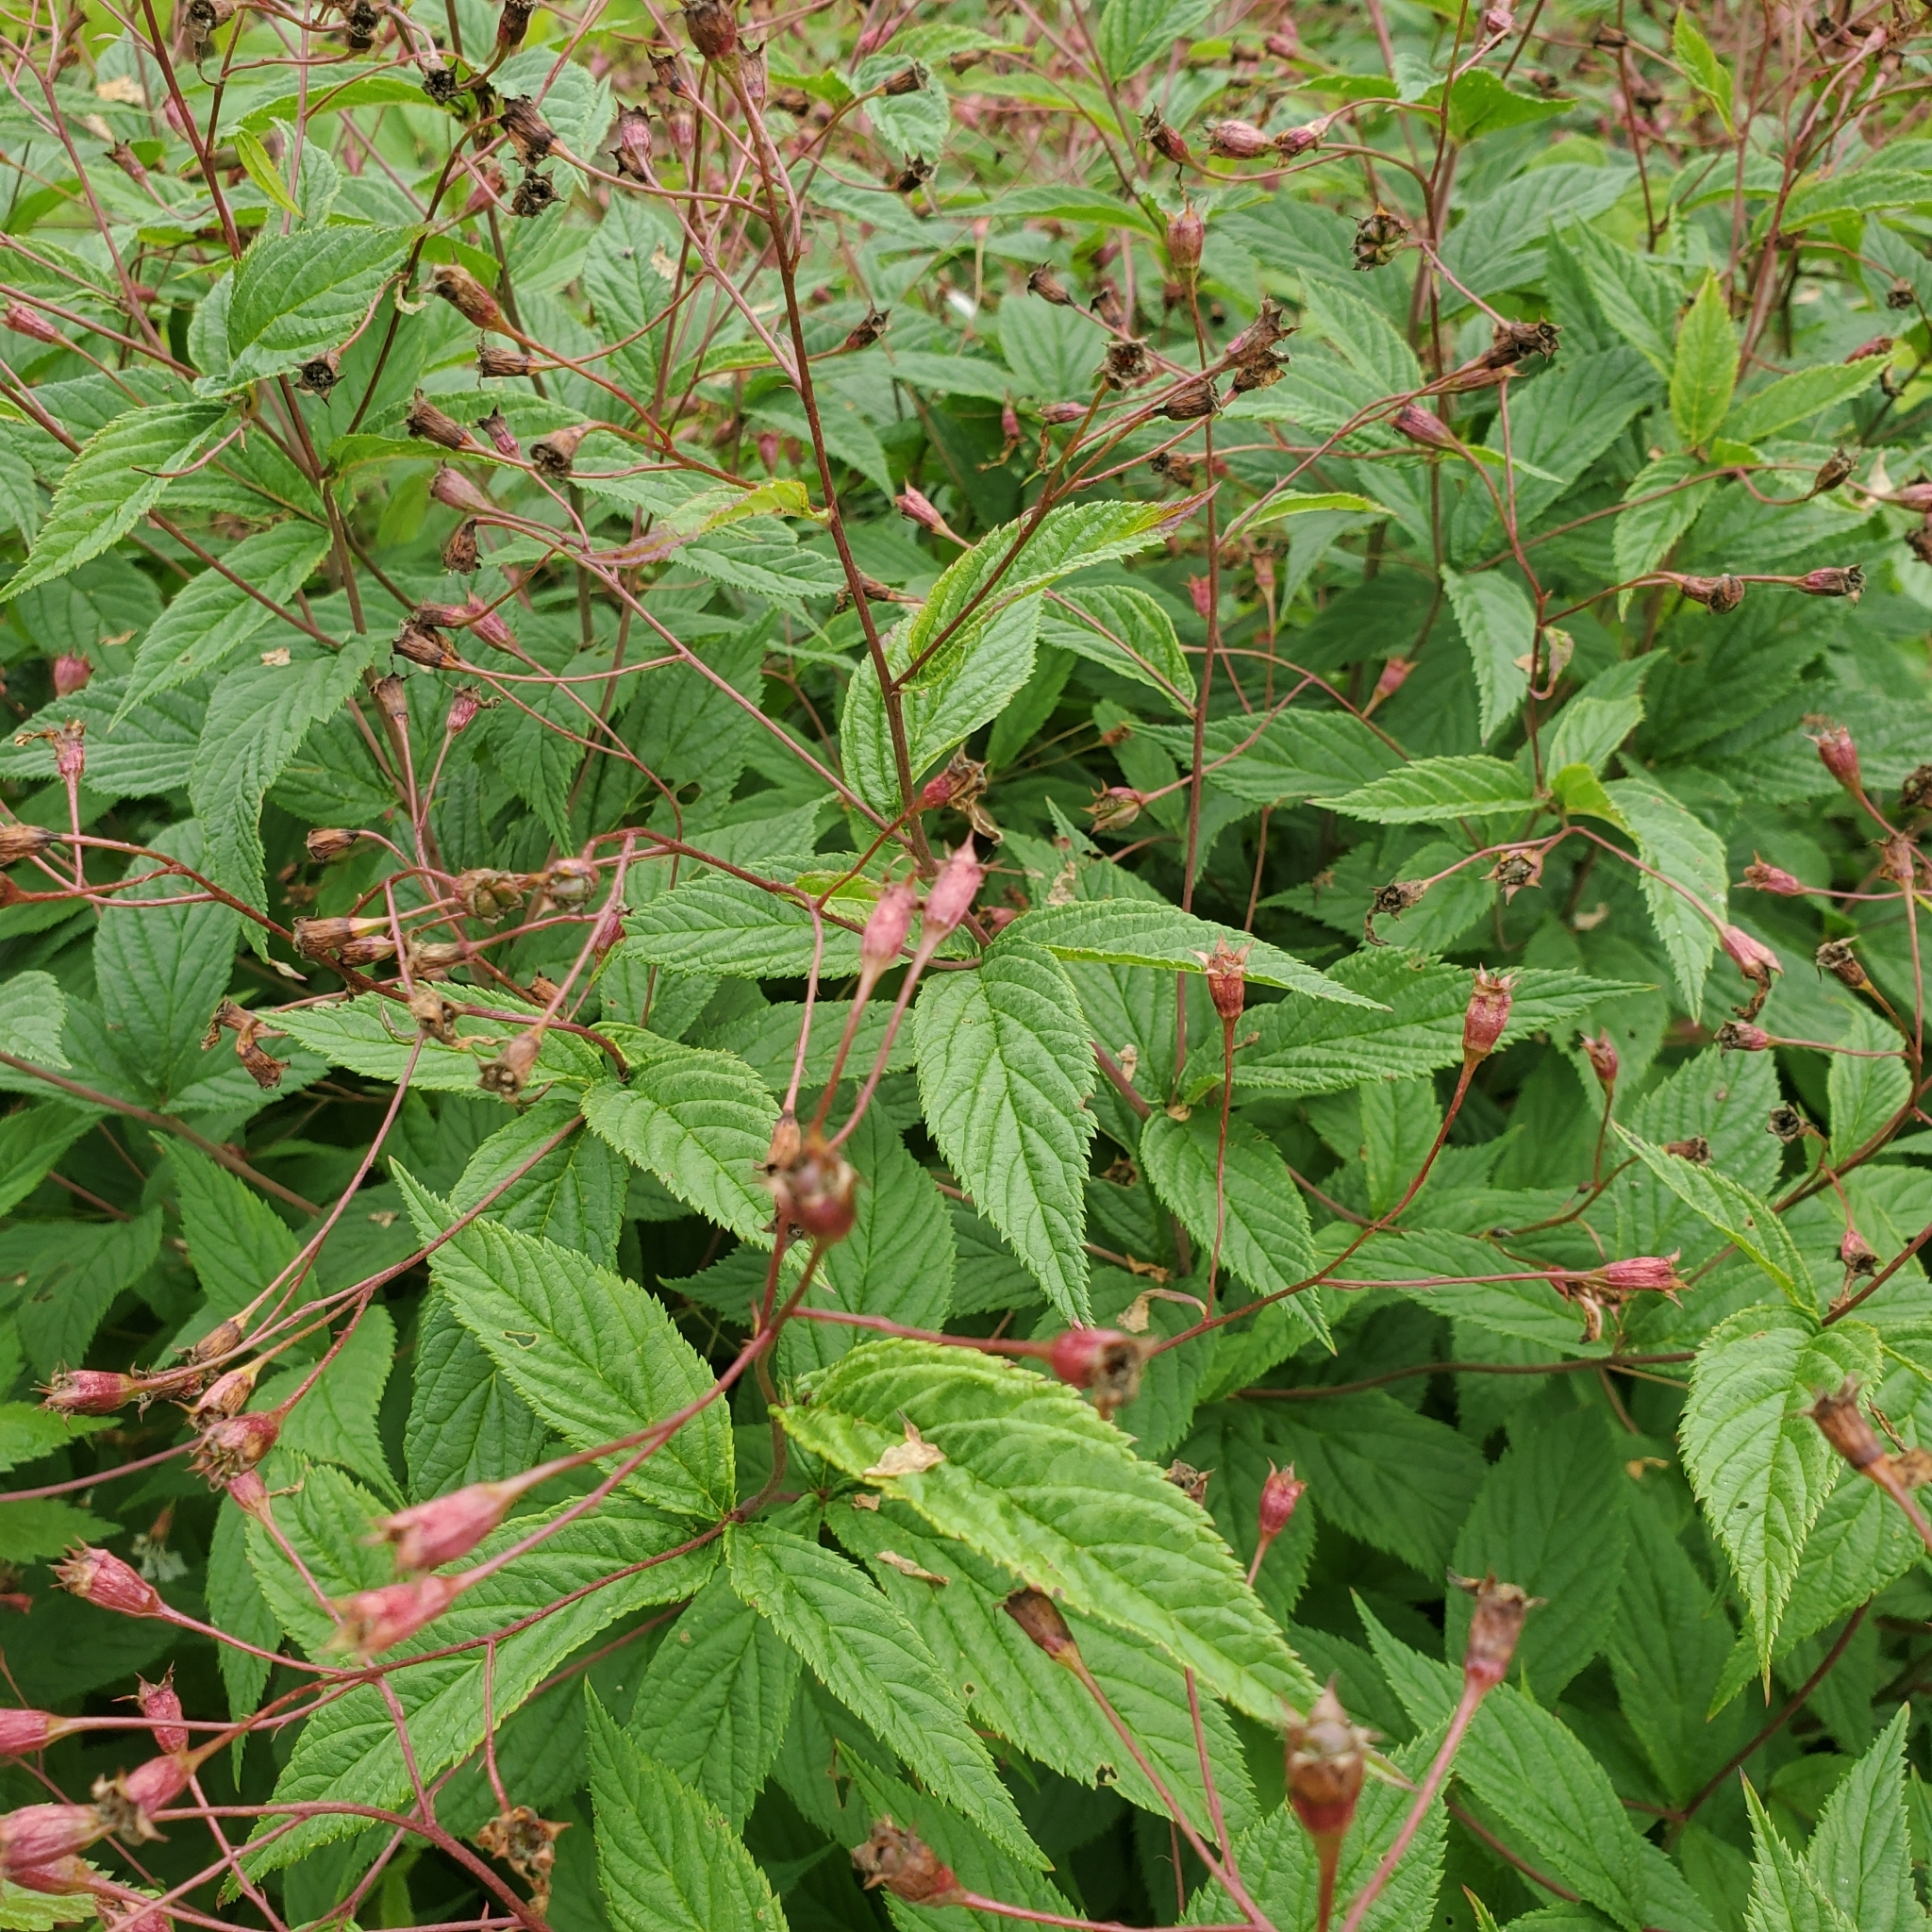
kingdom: Plantae
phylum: Tracheophyta
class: Magnoliopsida
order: Rosales
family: Rosaceae
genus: Gillenia
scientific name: Gillenia trifoliata
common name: Bowman's-root
